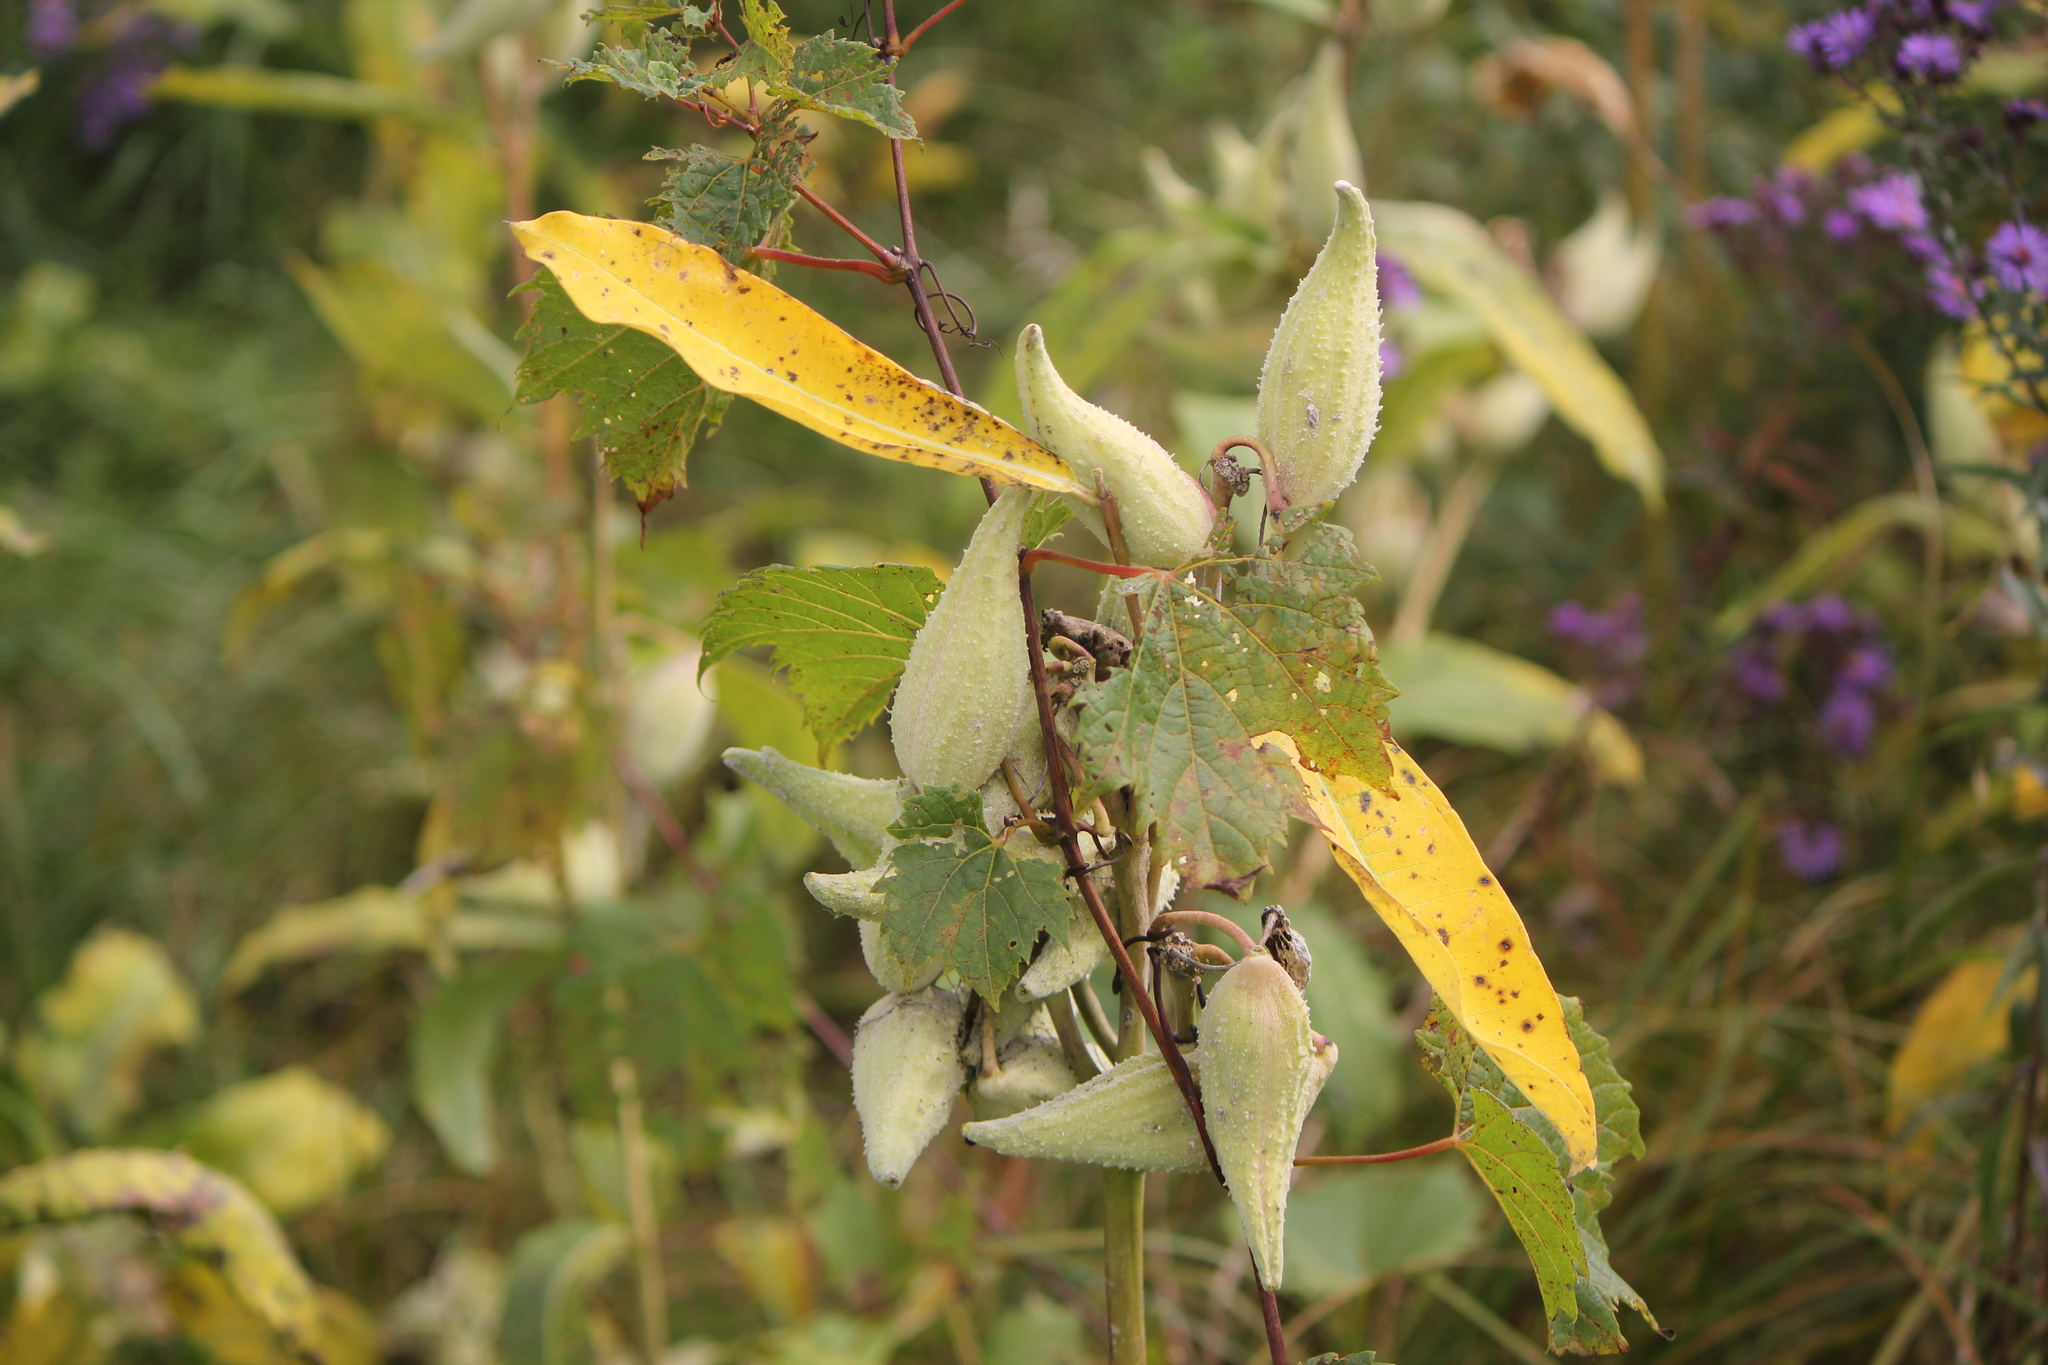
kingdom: Plantae
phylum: Tracheophyta
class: Magnoliopsida
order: Gentianales
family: Apocynaceae
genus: Asclepias
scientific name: Asclepias syriaca
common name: Common milkweed
